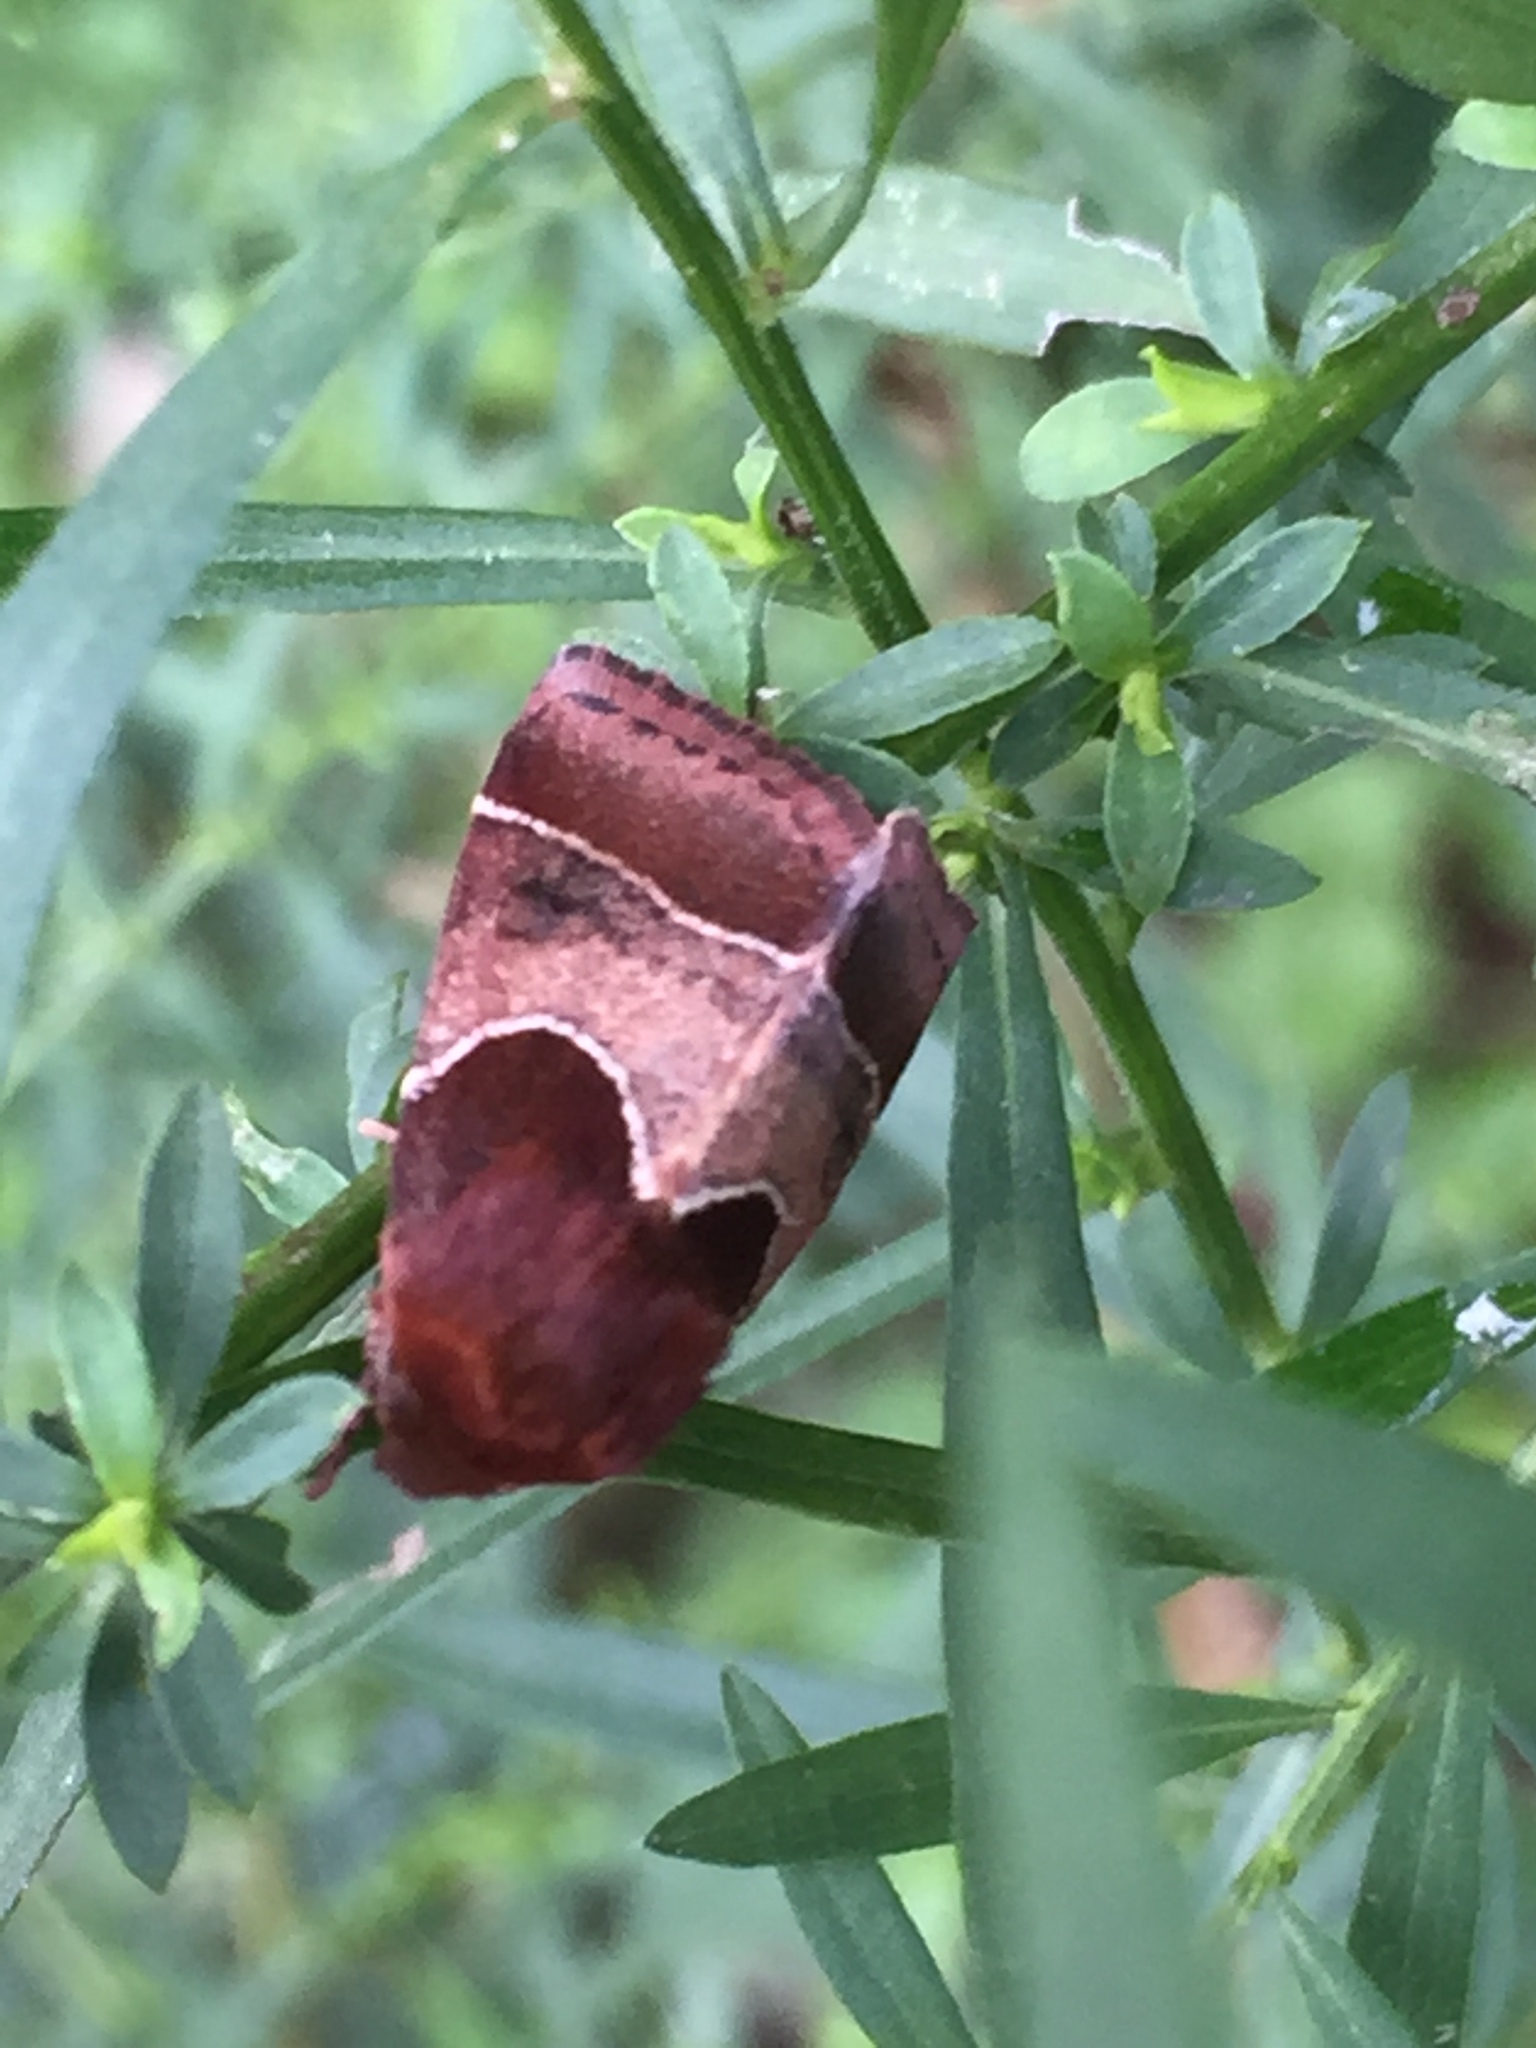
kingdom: Animalia
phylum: Arthropoda
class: Insecta
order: Lepidoptera
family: Noctuidae
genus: Schinia
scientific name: Schinia arcigera
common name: Arcigera flower moth
